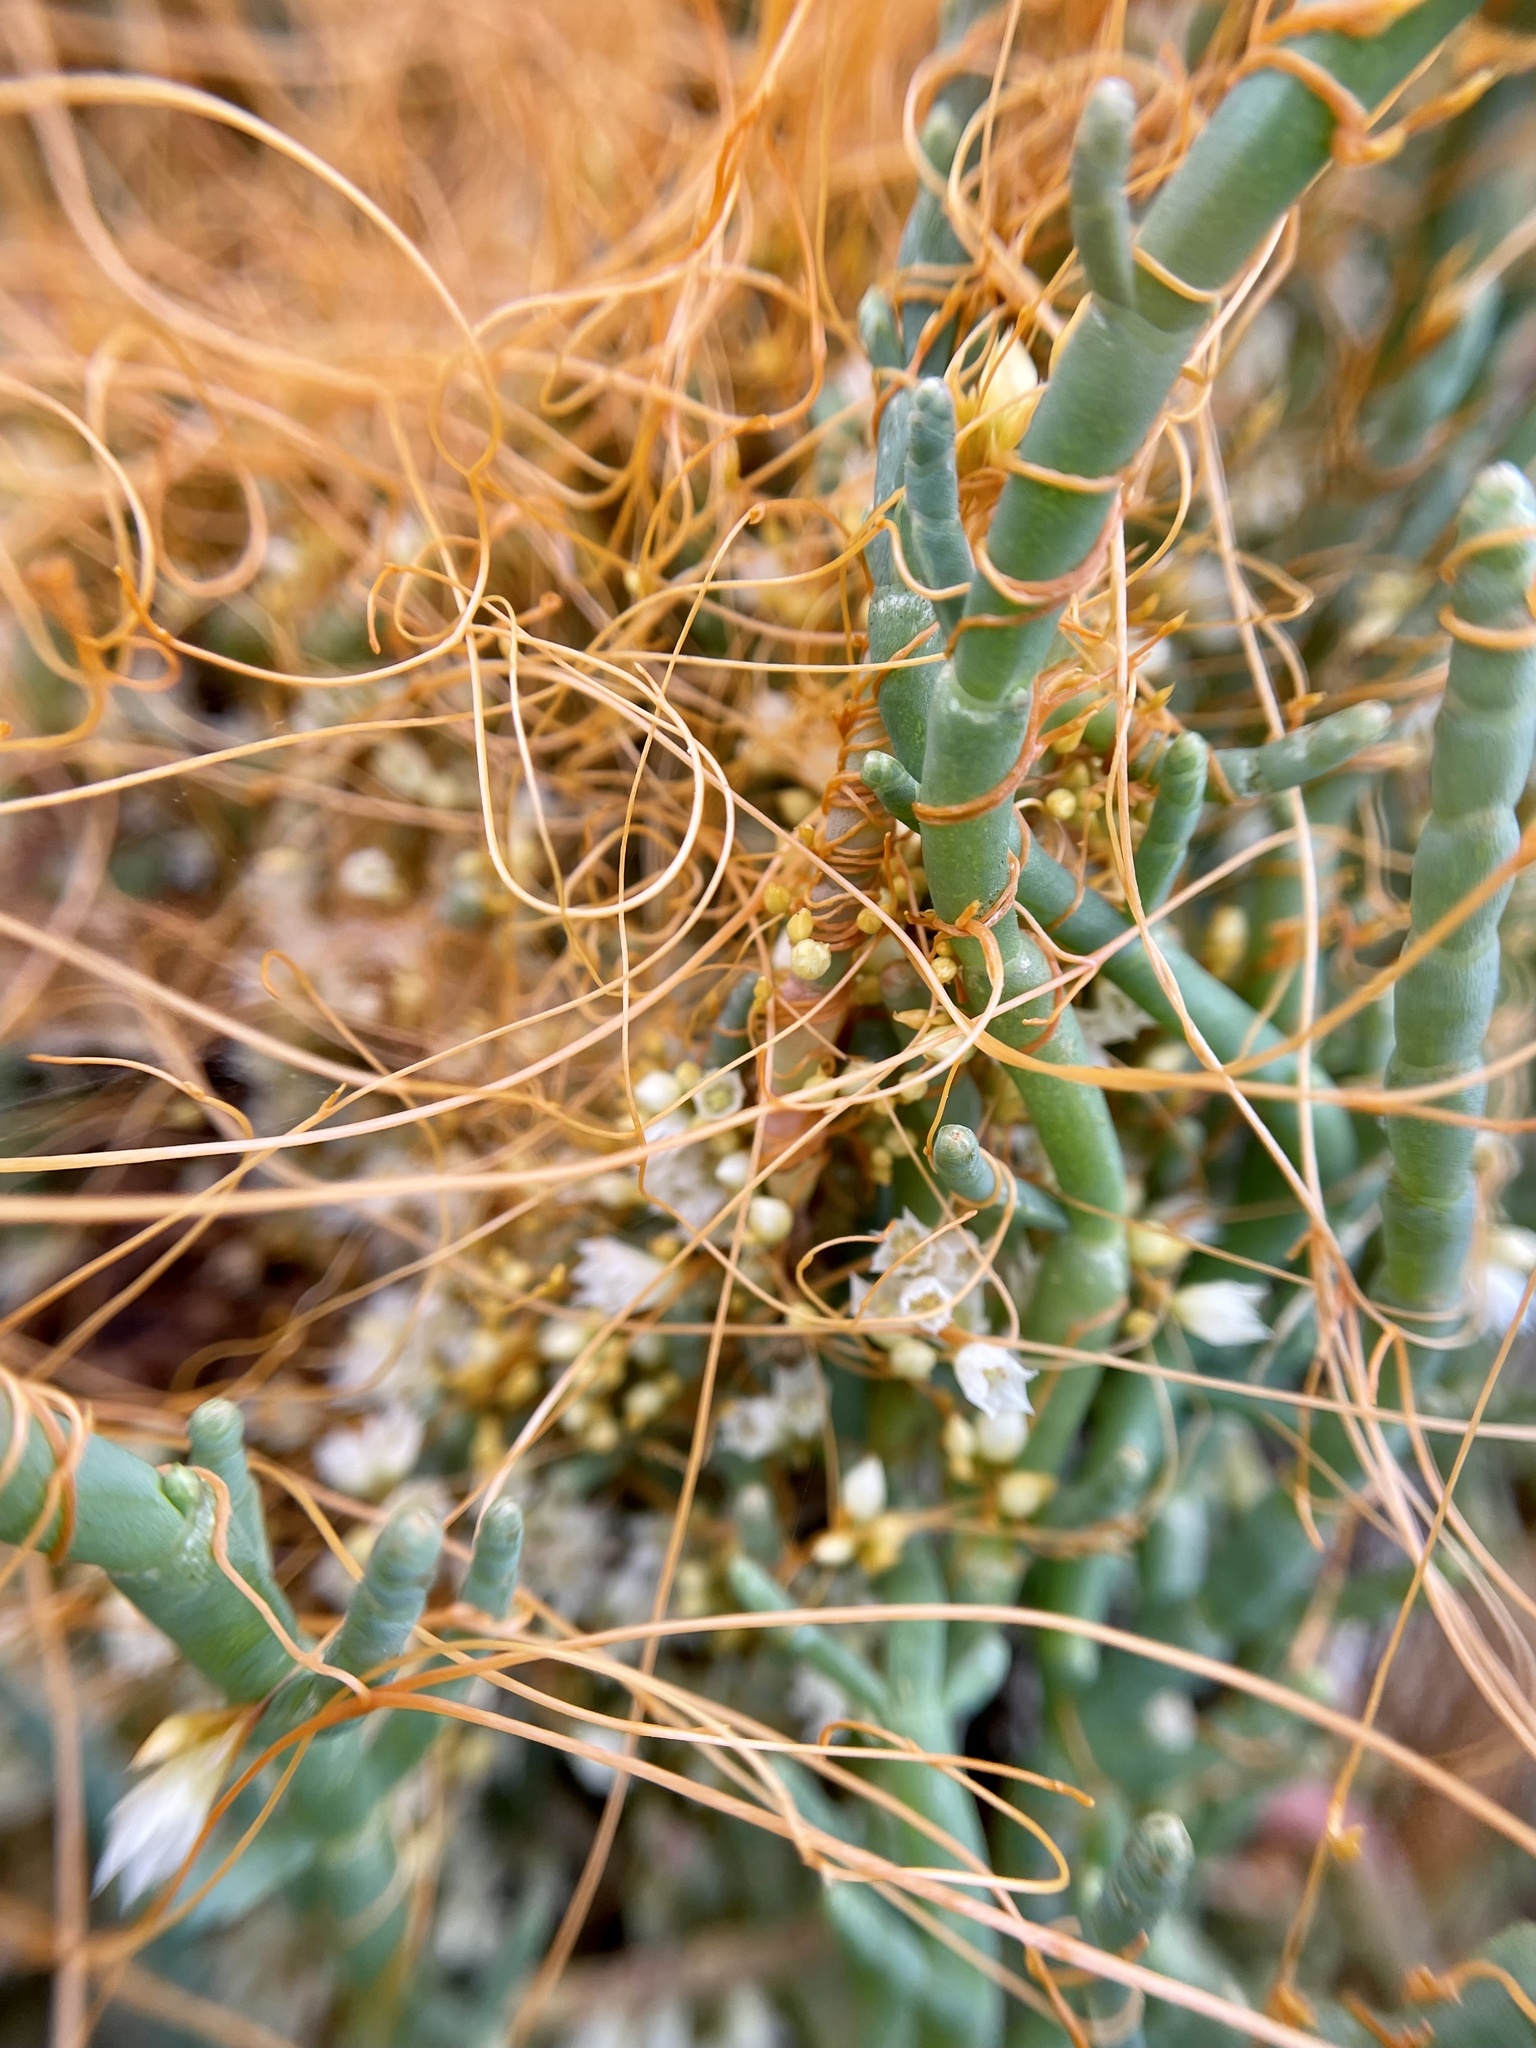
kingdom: Plantae
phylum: Tracheophyta
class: Magnoliopsida
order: Solanales
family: Convolvulaceae
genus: Cuscuta
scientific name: Cuscuta pacifica
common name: Large saltmarsh dodder
